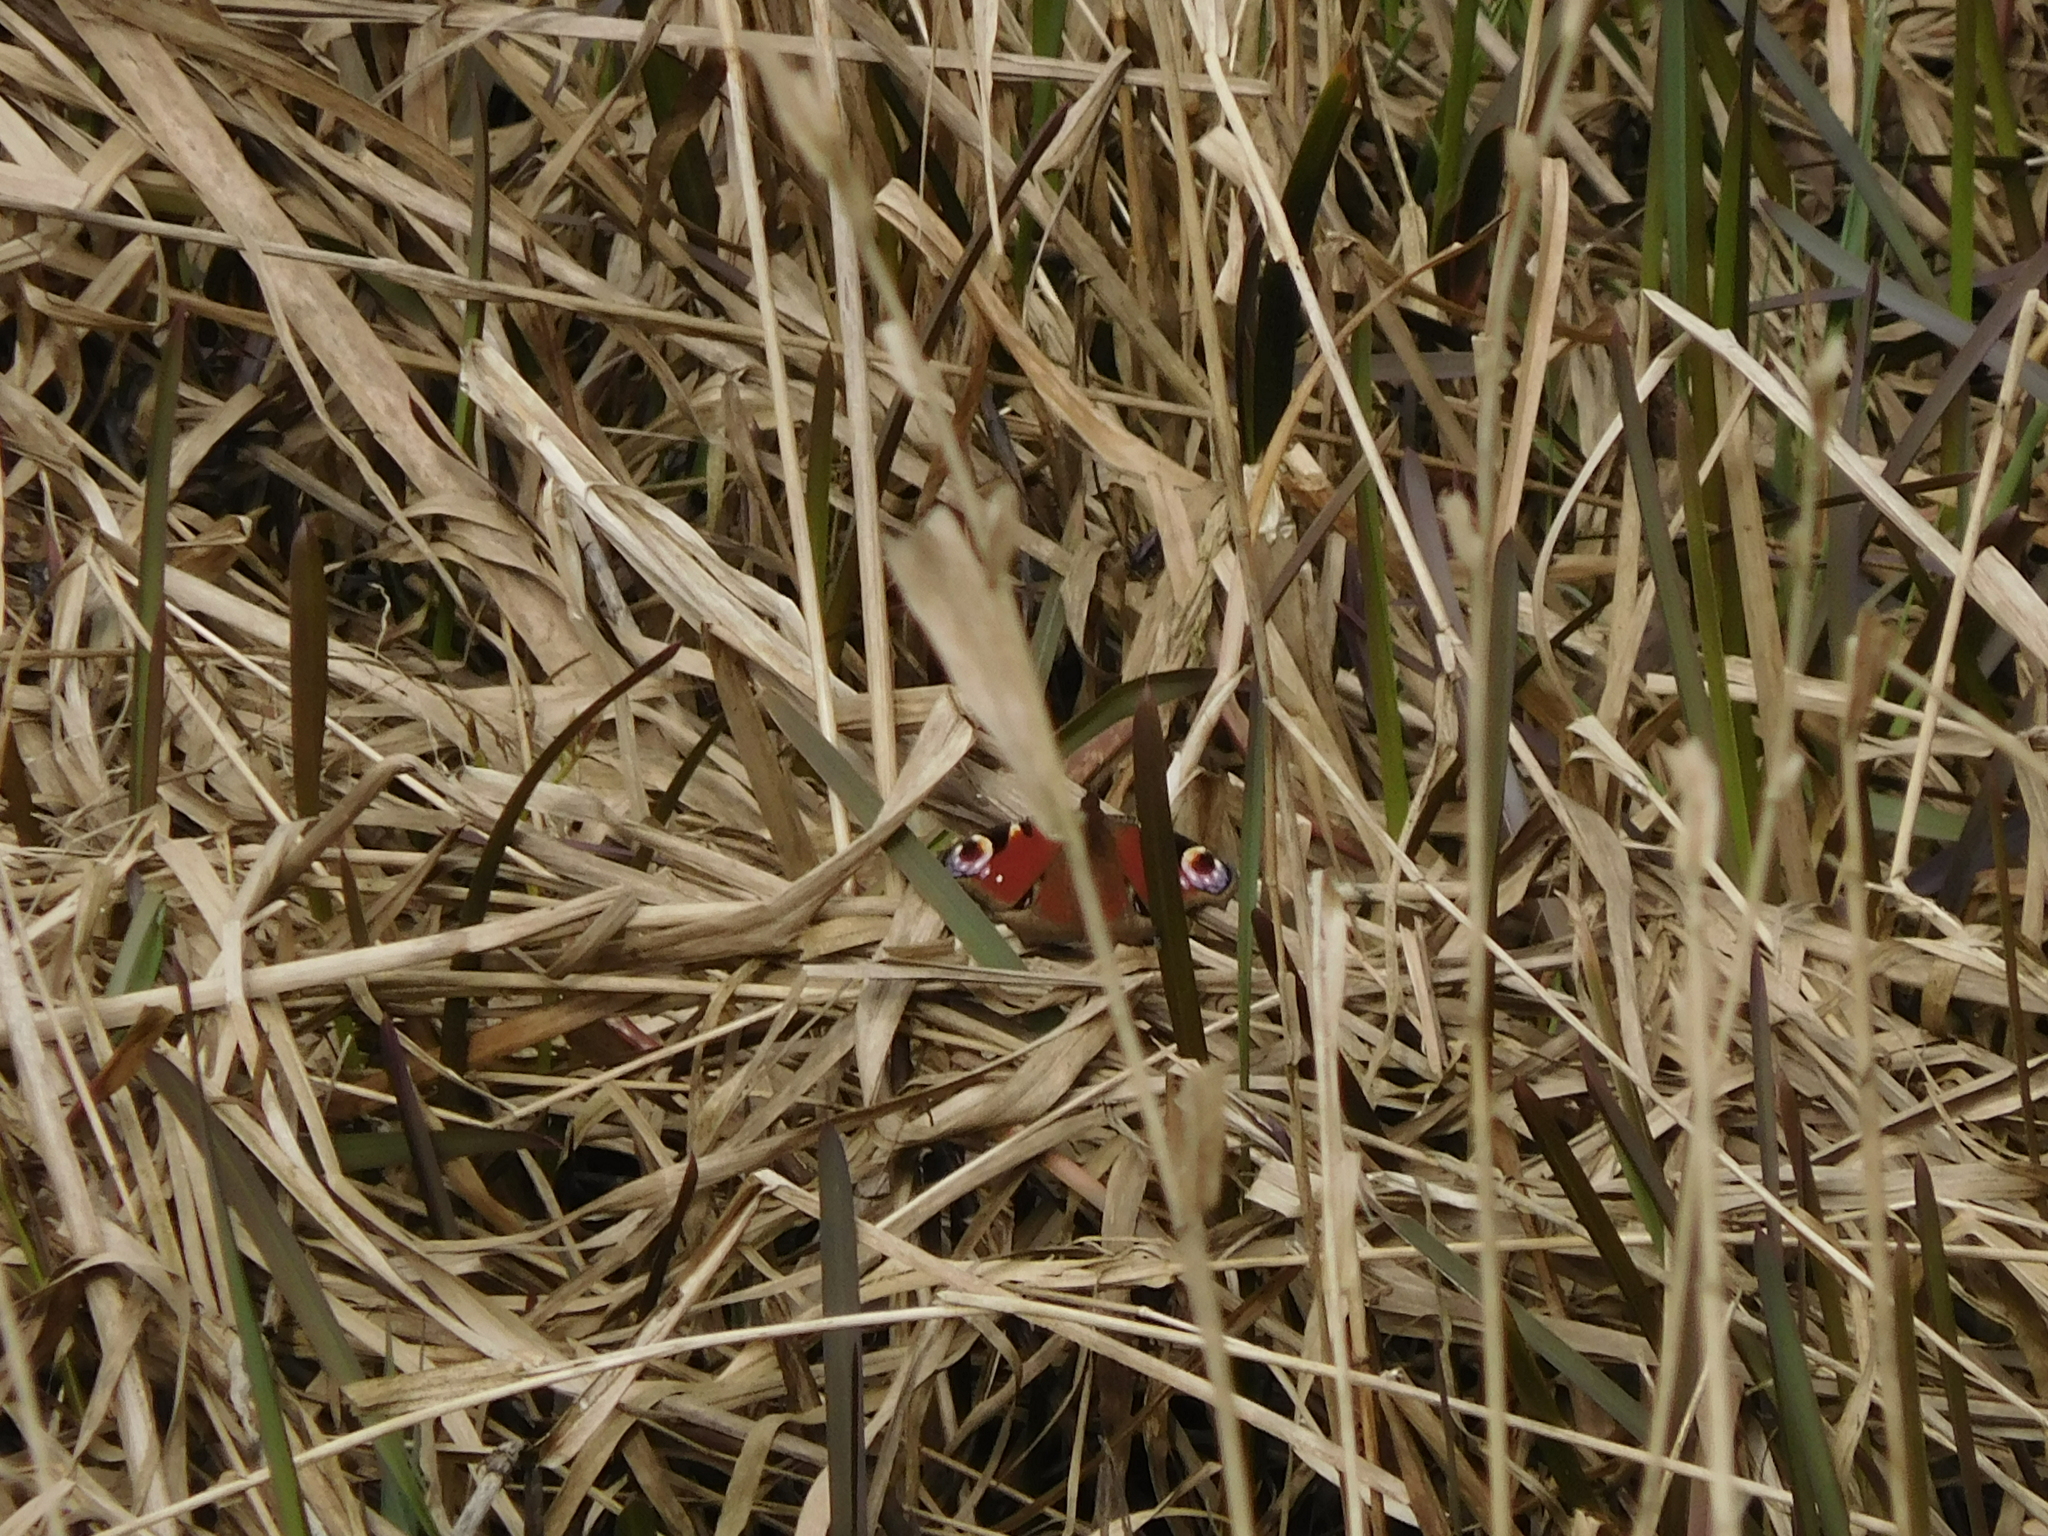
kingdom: Animalia
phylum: Arthropoda
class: Insecta
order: Lepidoptera
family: Nymphalidae
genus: Aglais
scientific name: Aglais io
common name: Peacock
